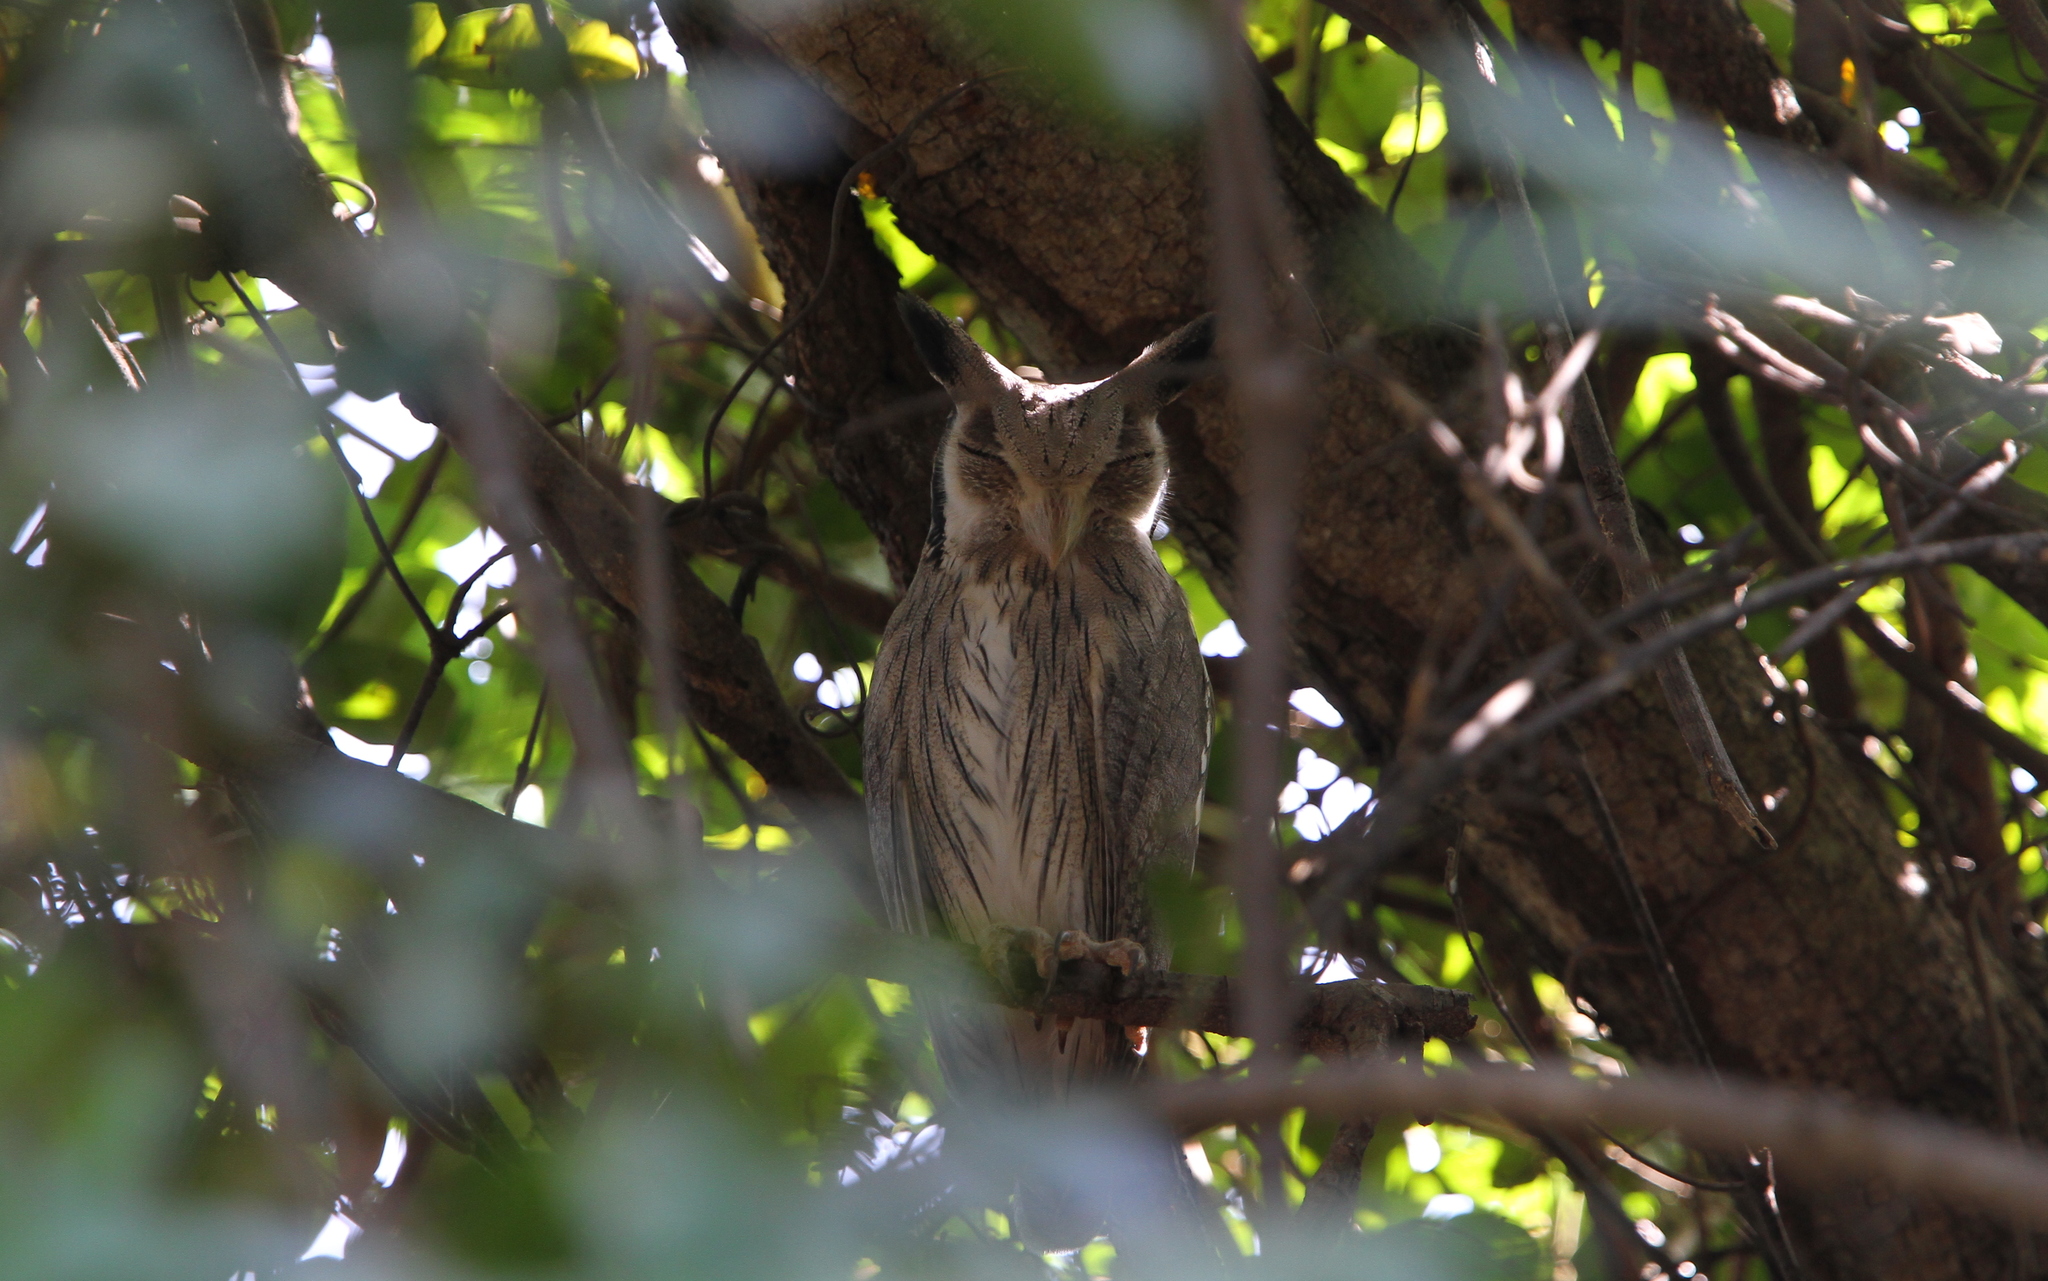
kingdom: Animalia
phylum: Chordata
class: Aves
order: Strigiformes
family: Strigidae
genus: Ptilopsis
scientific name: Ptilopsis leucotis
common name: Northern white-faced owl
